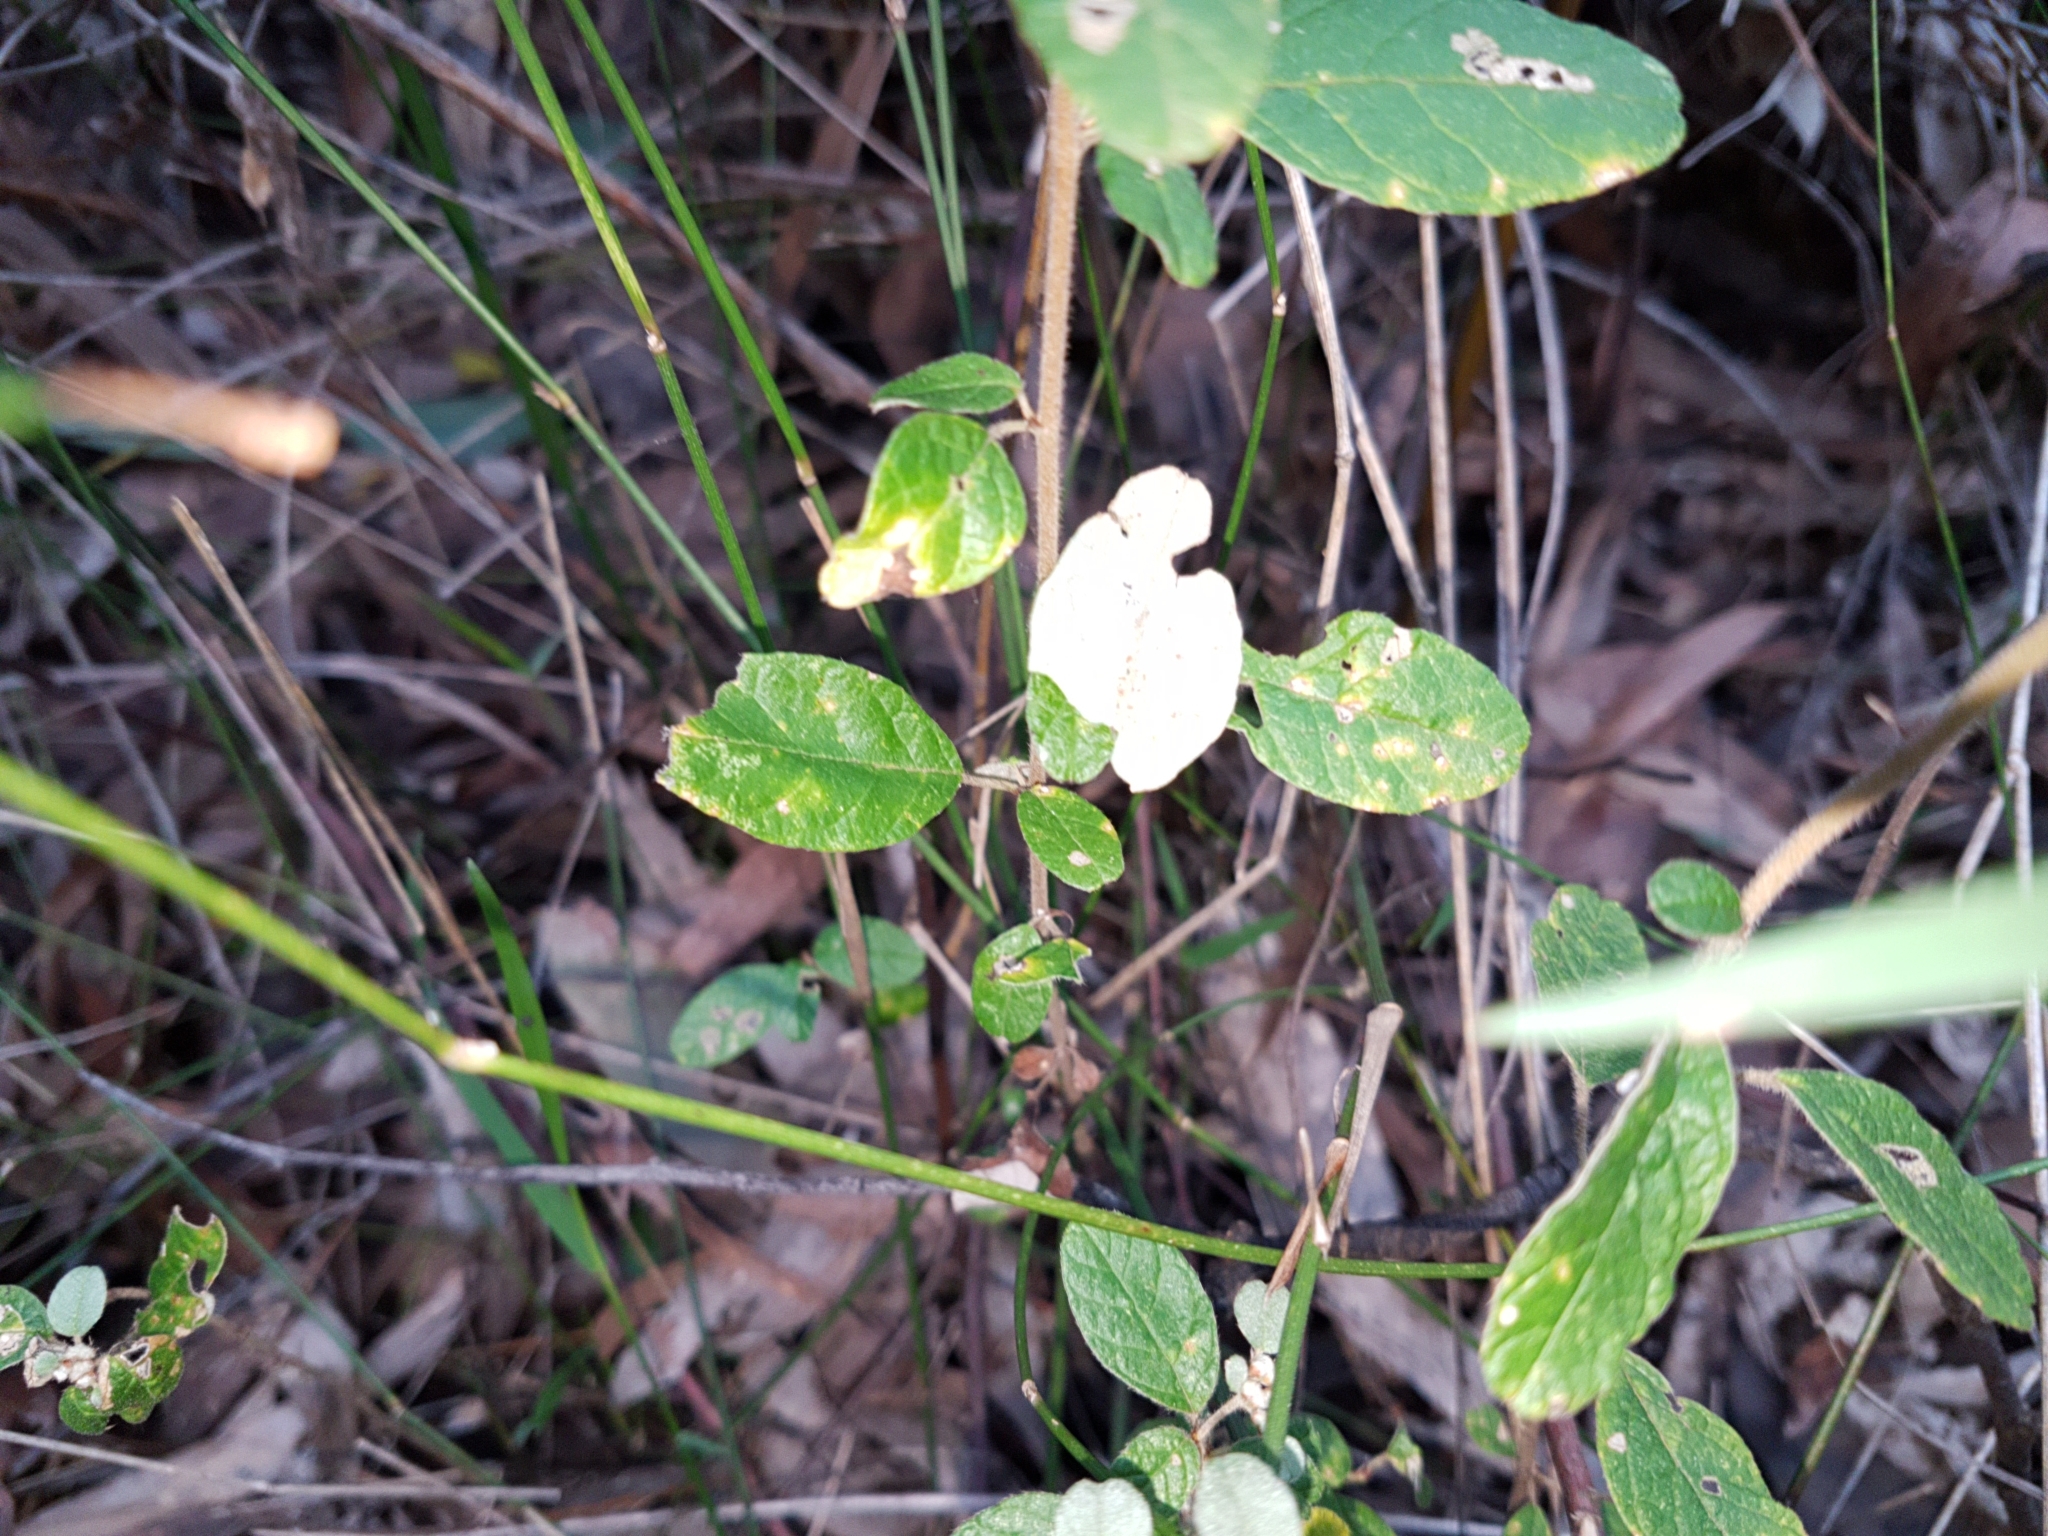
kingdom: Fungi
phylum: Basidiomycota
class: Pucciniomycetes
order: Pucciniales
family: Pucciniaceae
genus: Uredo
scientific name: Uredo spyridii
